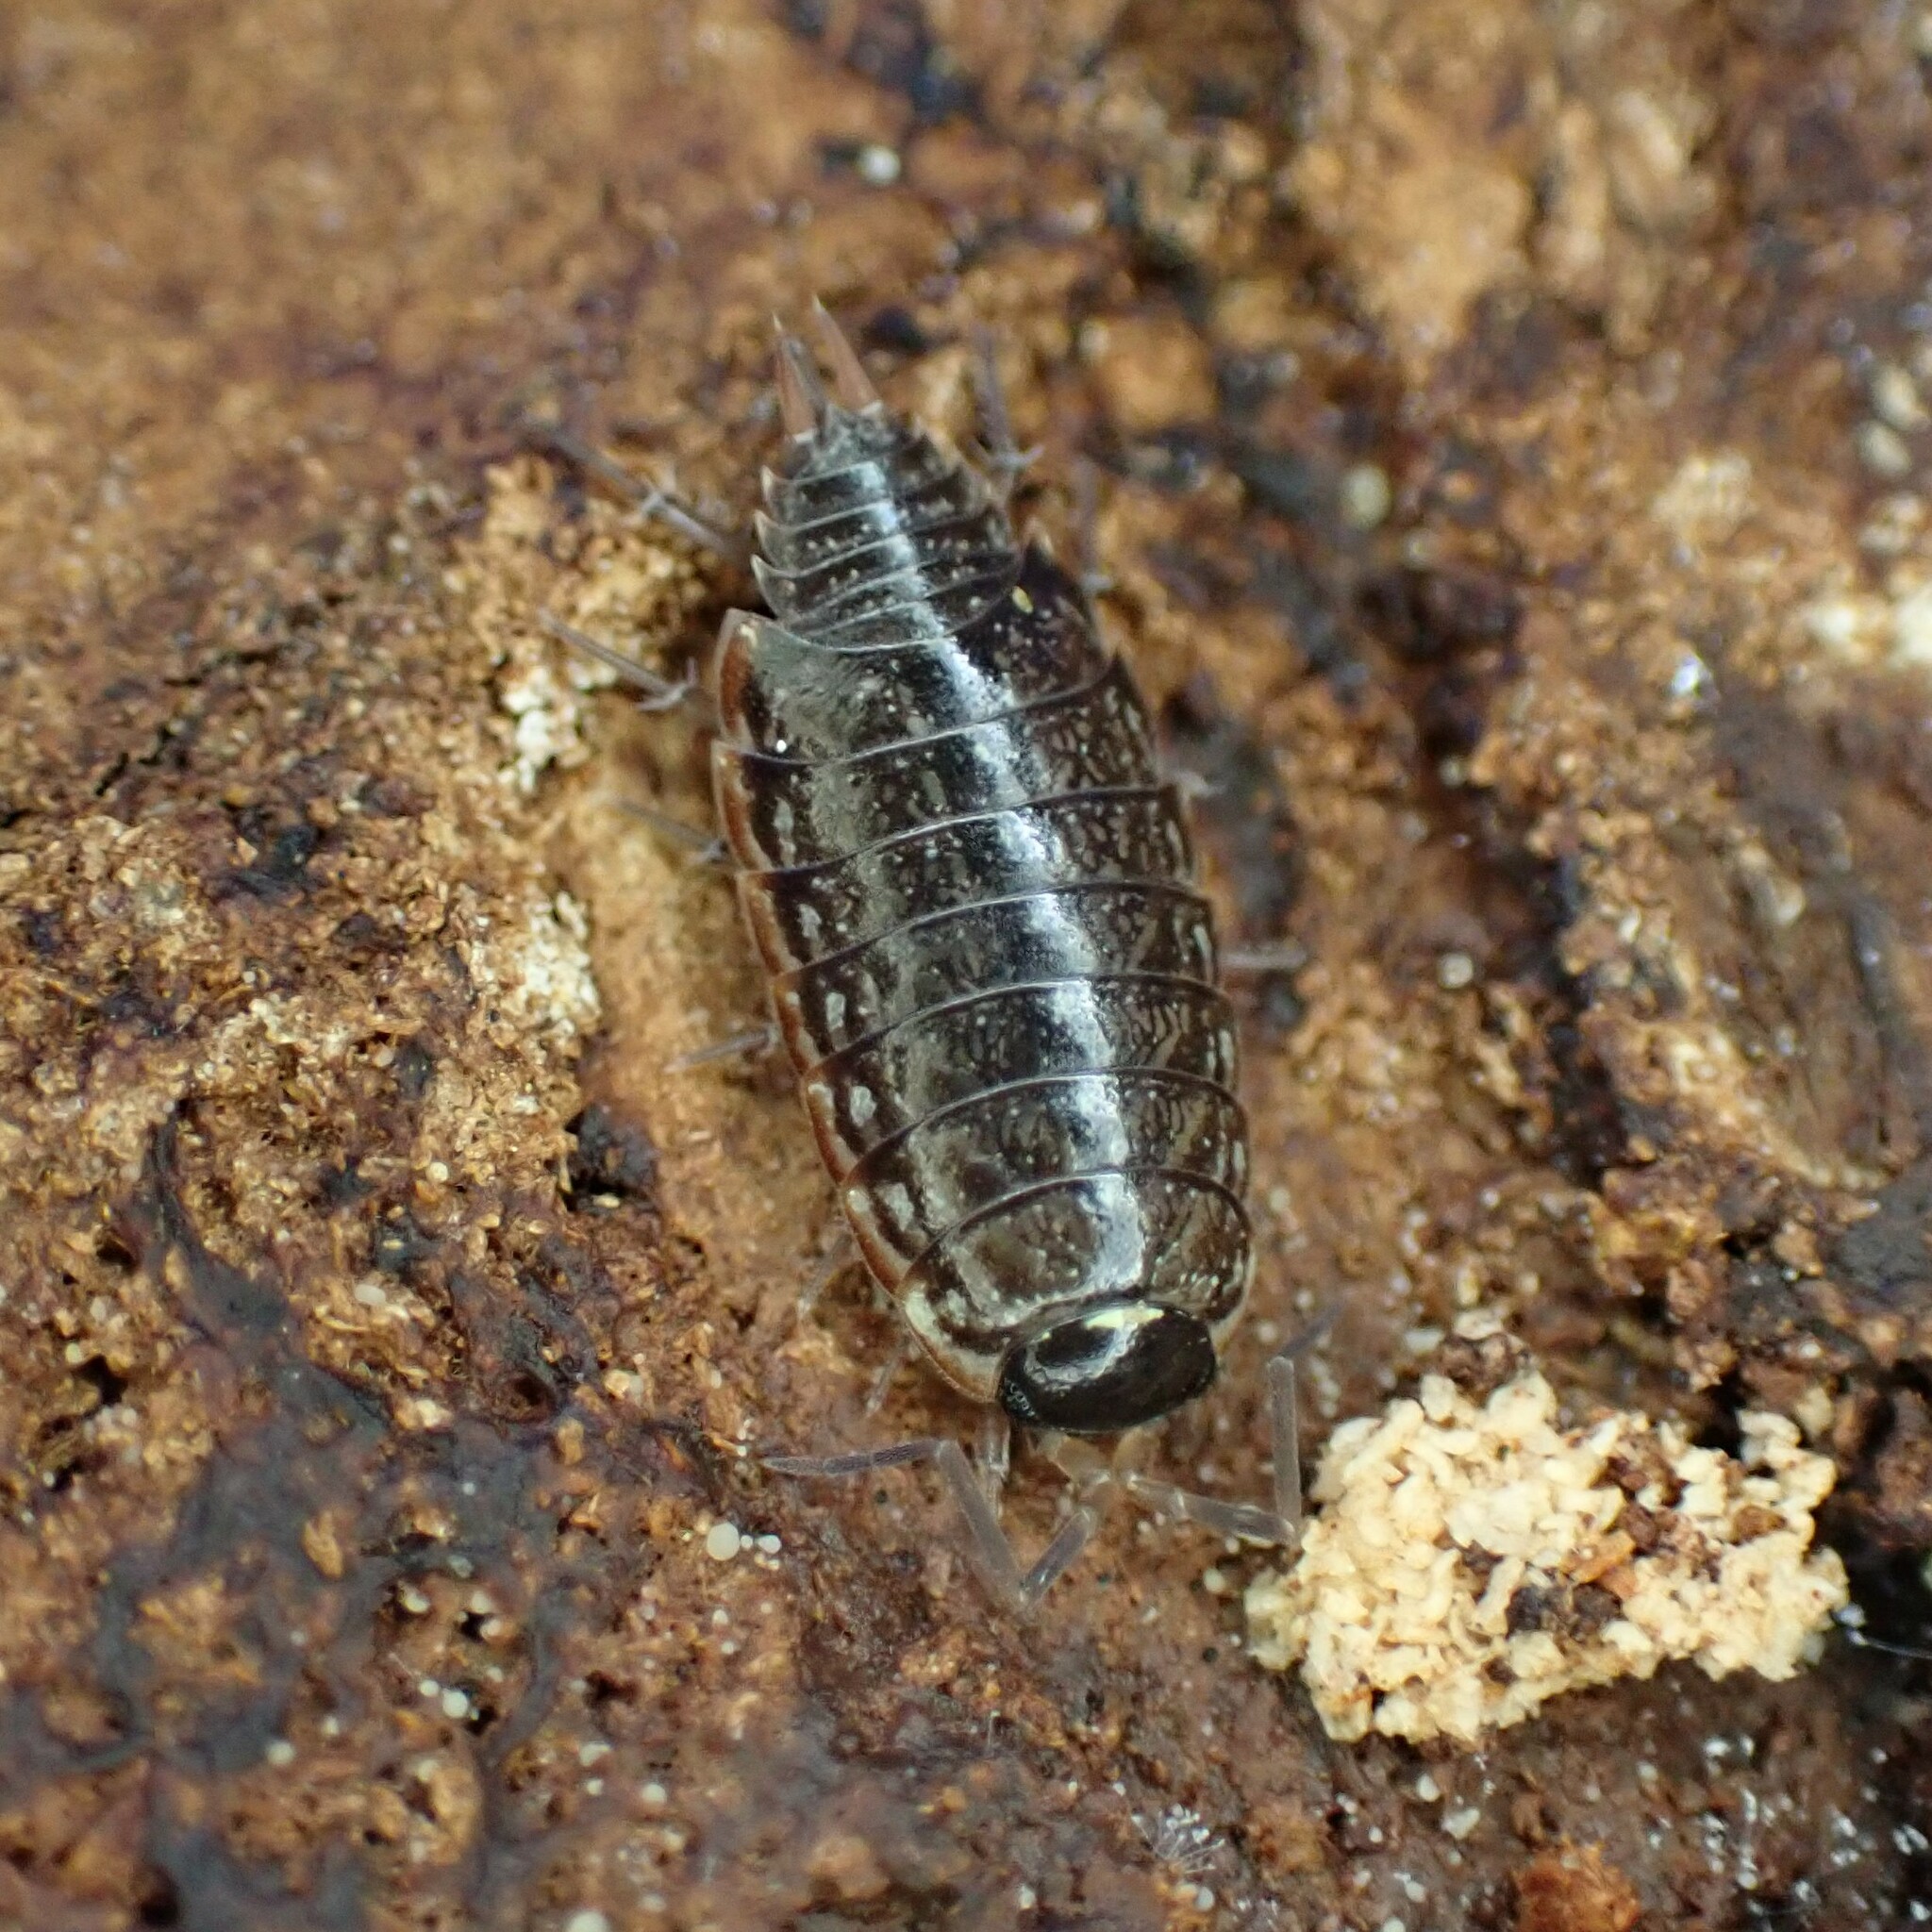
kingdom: Animalia
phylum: Arthropoda
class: Malacostraca
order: Isopoda
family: Philosciidae
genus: Philoscia
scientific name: Philoscia muscorum
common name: Common striped woodlouse
